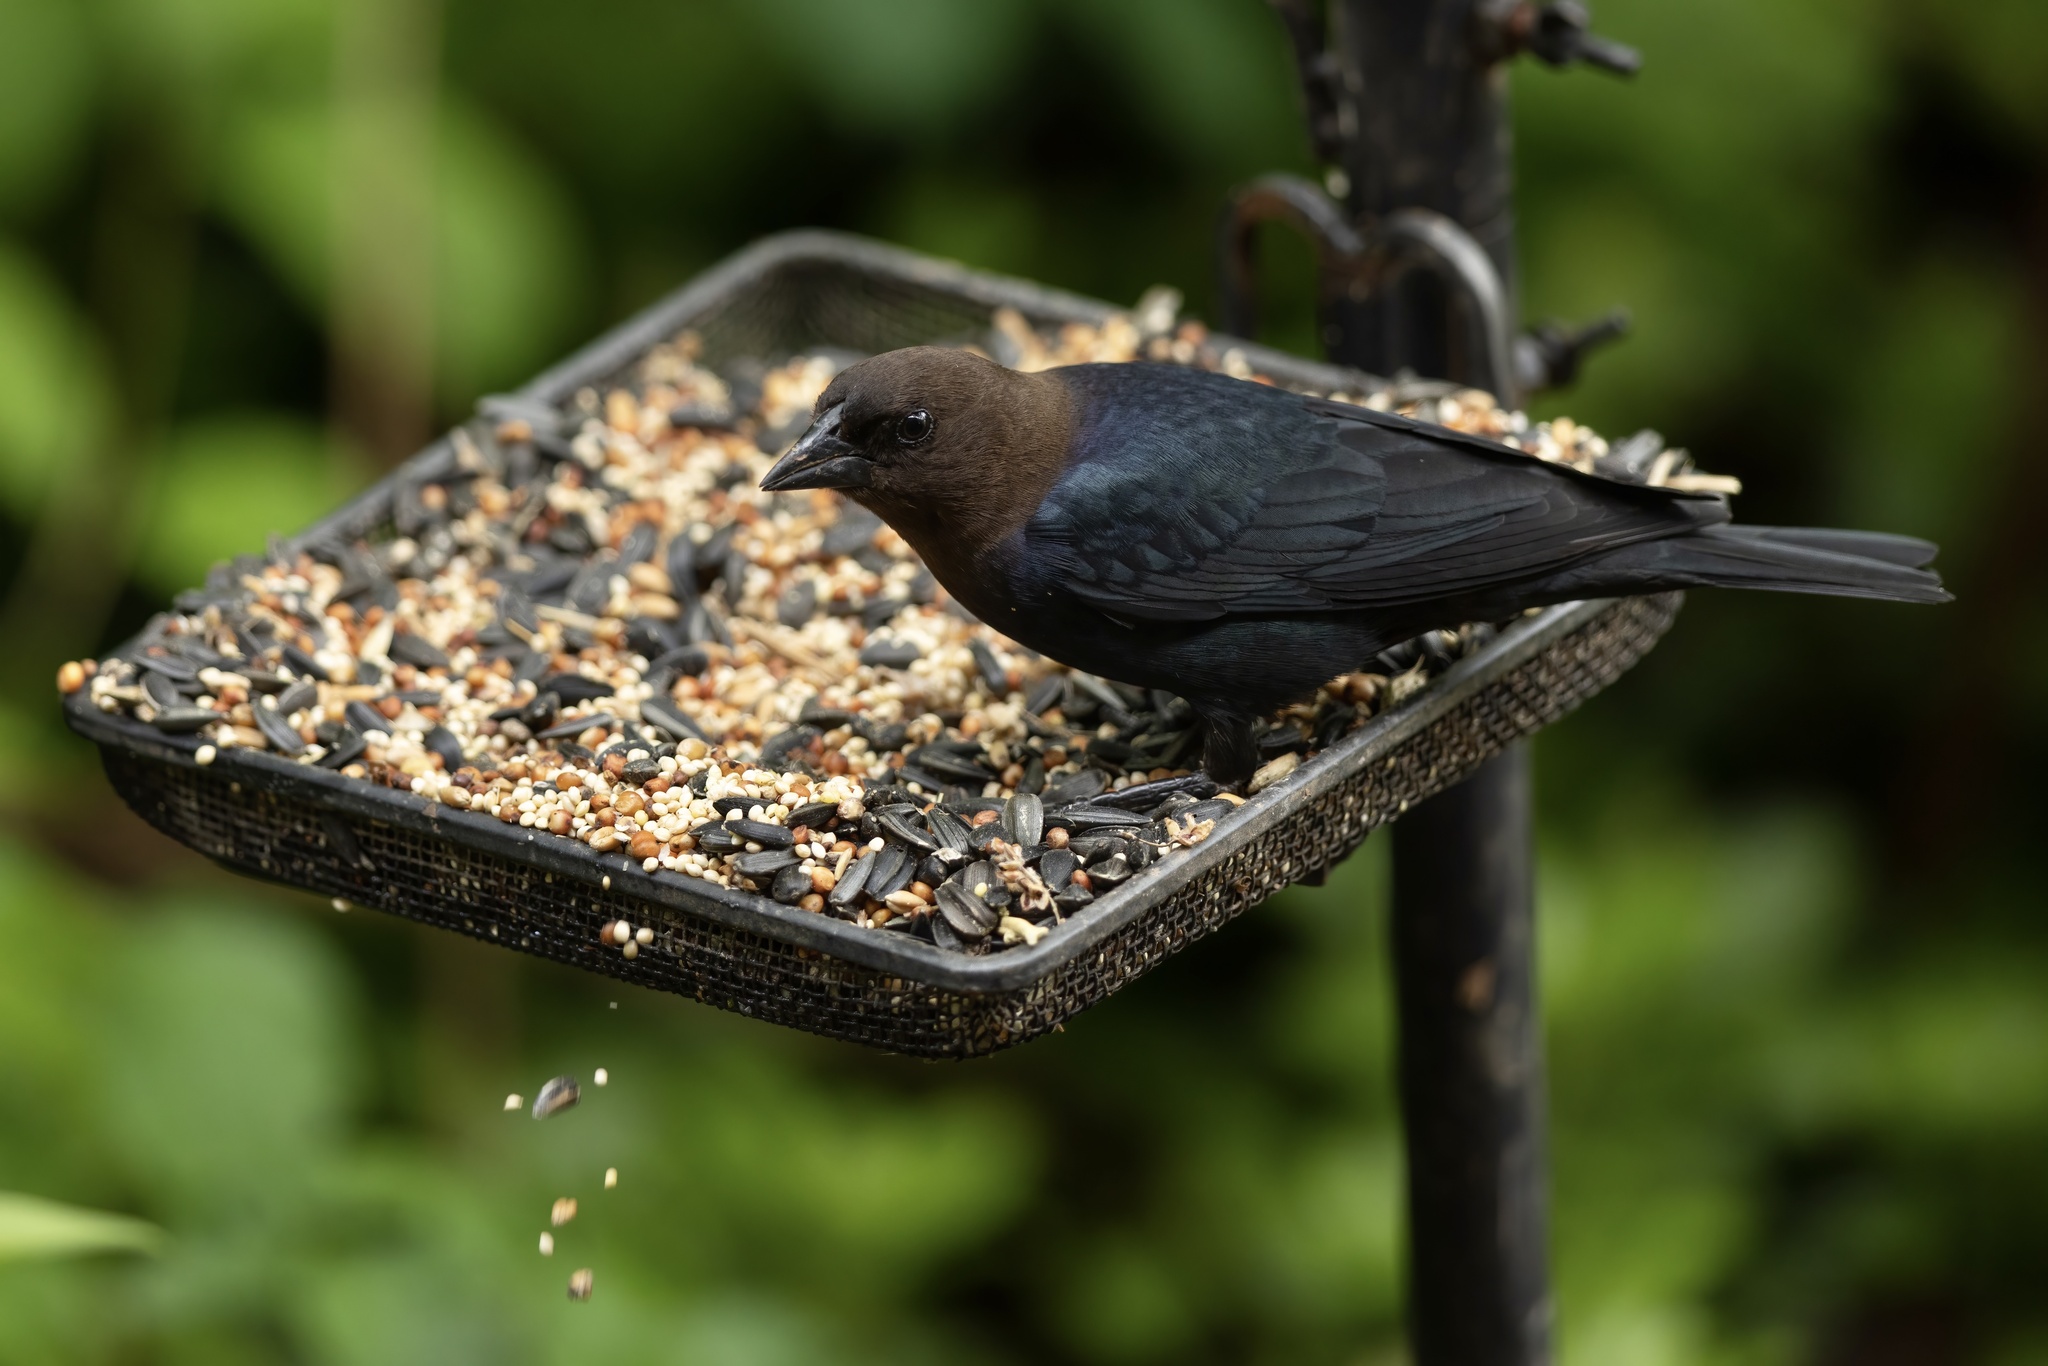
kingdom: Animalia
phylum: Chordata
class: Aves
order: Passeriformes
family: Icteridae
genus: Molothrus
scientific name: Molothrus ater
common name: Brown-headed cowbird
